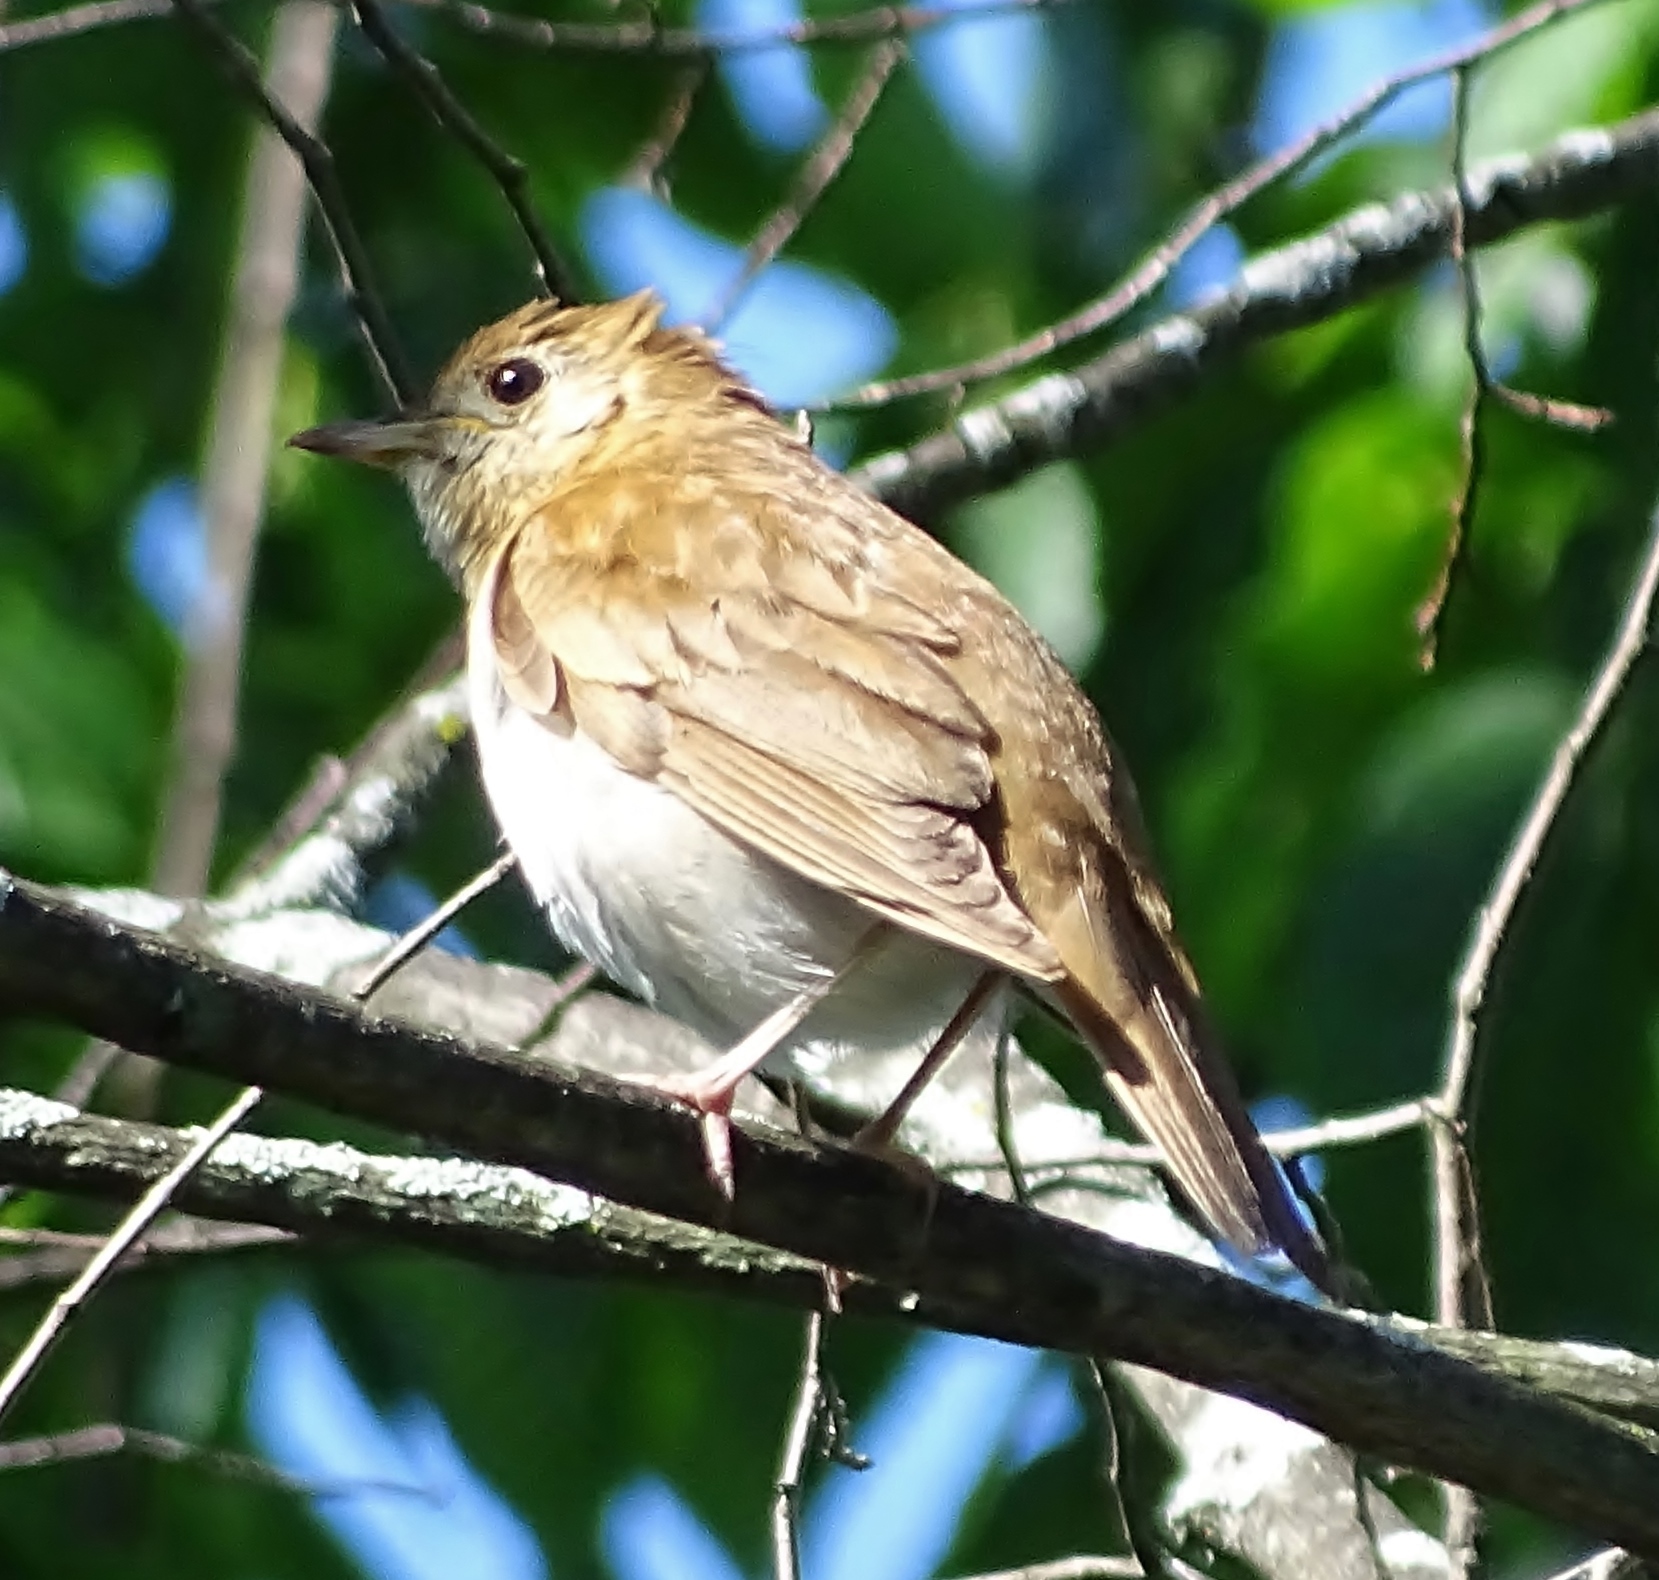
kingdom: Animalia
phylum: Chordata
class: Aves
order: Passeriformes
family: Turdidae
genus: Catharus
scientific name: Catharus fuscescens
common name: Veery
